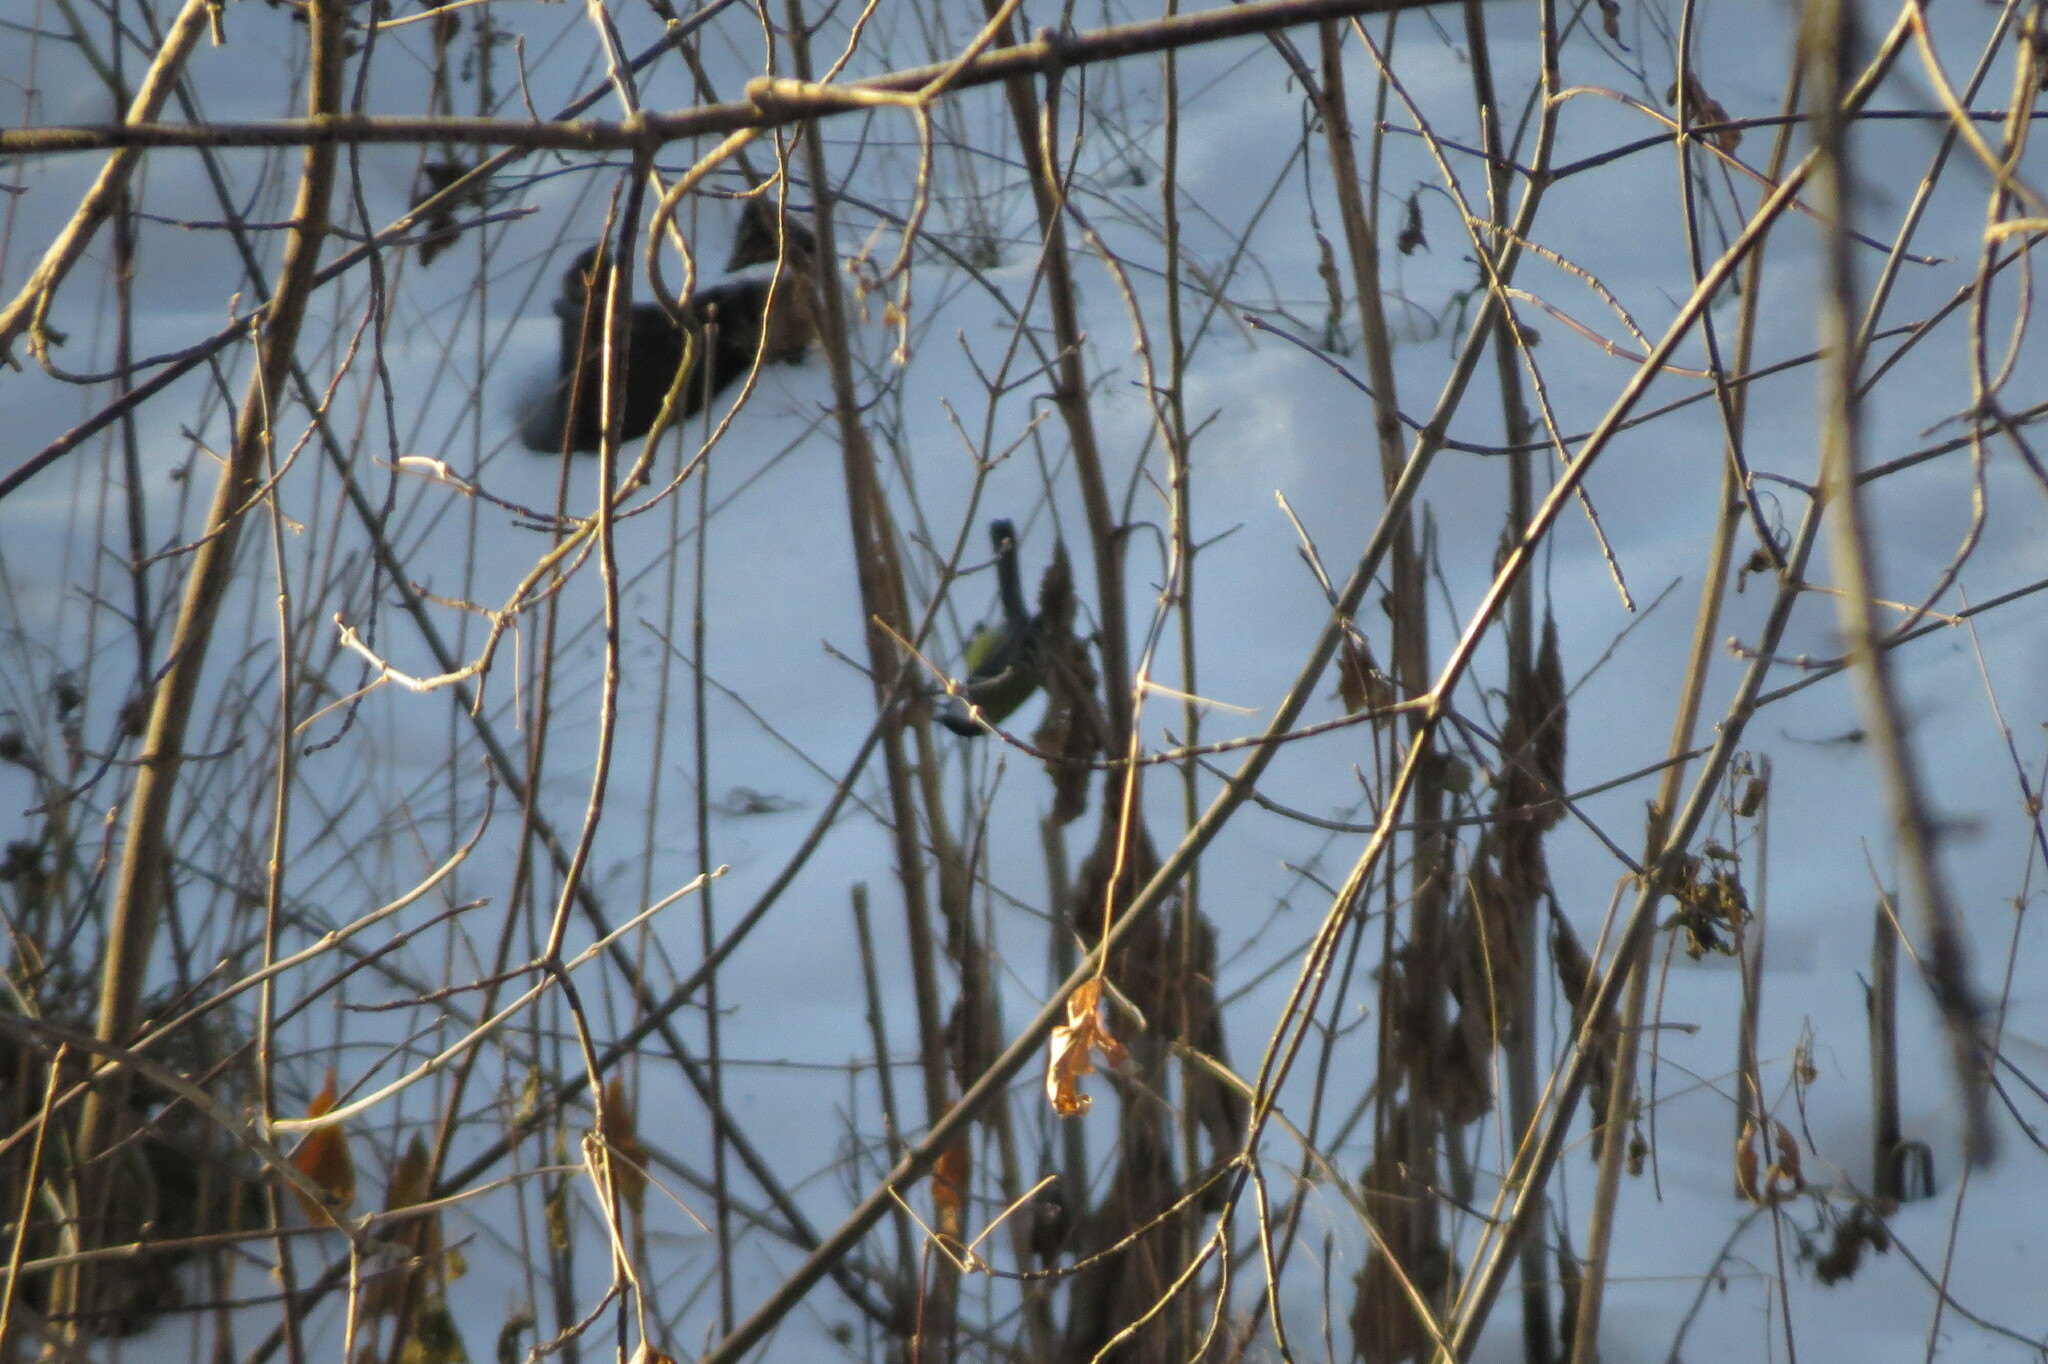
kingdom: Animalia
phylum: Chordata
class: Aves
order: Passeriformes
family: Paridae
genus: Parus
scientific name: Parus major
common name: Great tit
